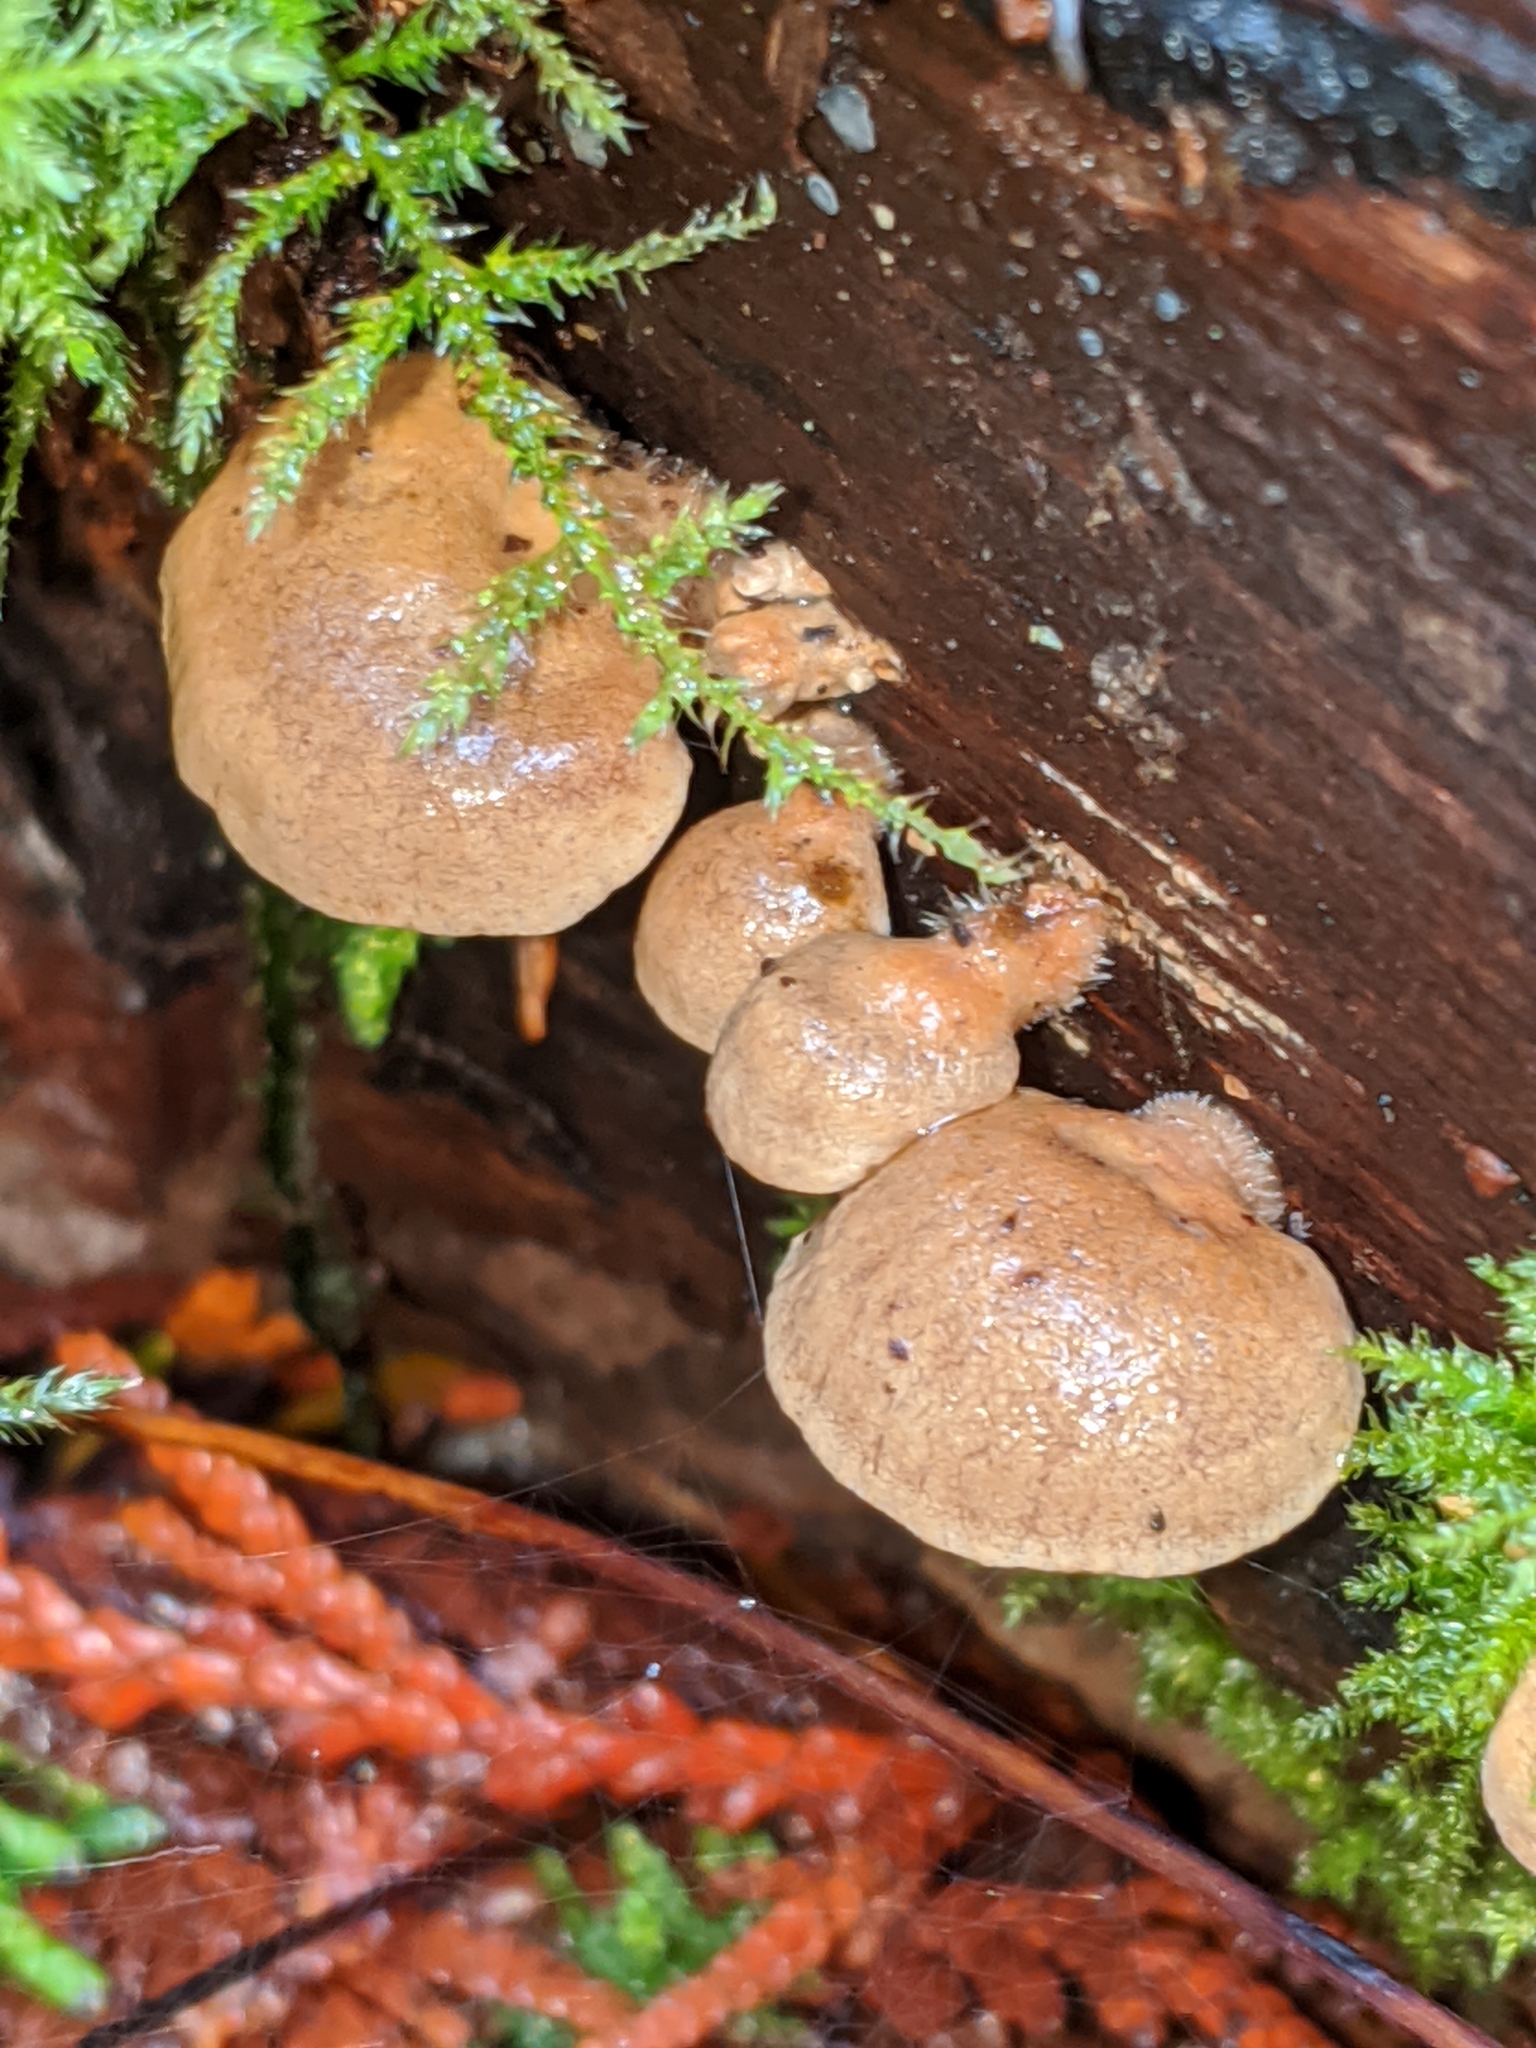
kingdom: Fungi
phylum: Basidiomycota
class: Agaricomycetes
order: Agaricales
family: Mycenaceae
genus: Panellus
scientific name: Panellus stipticus
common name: Bitter oysterling
